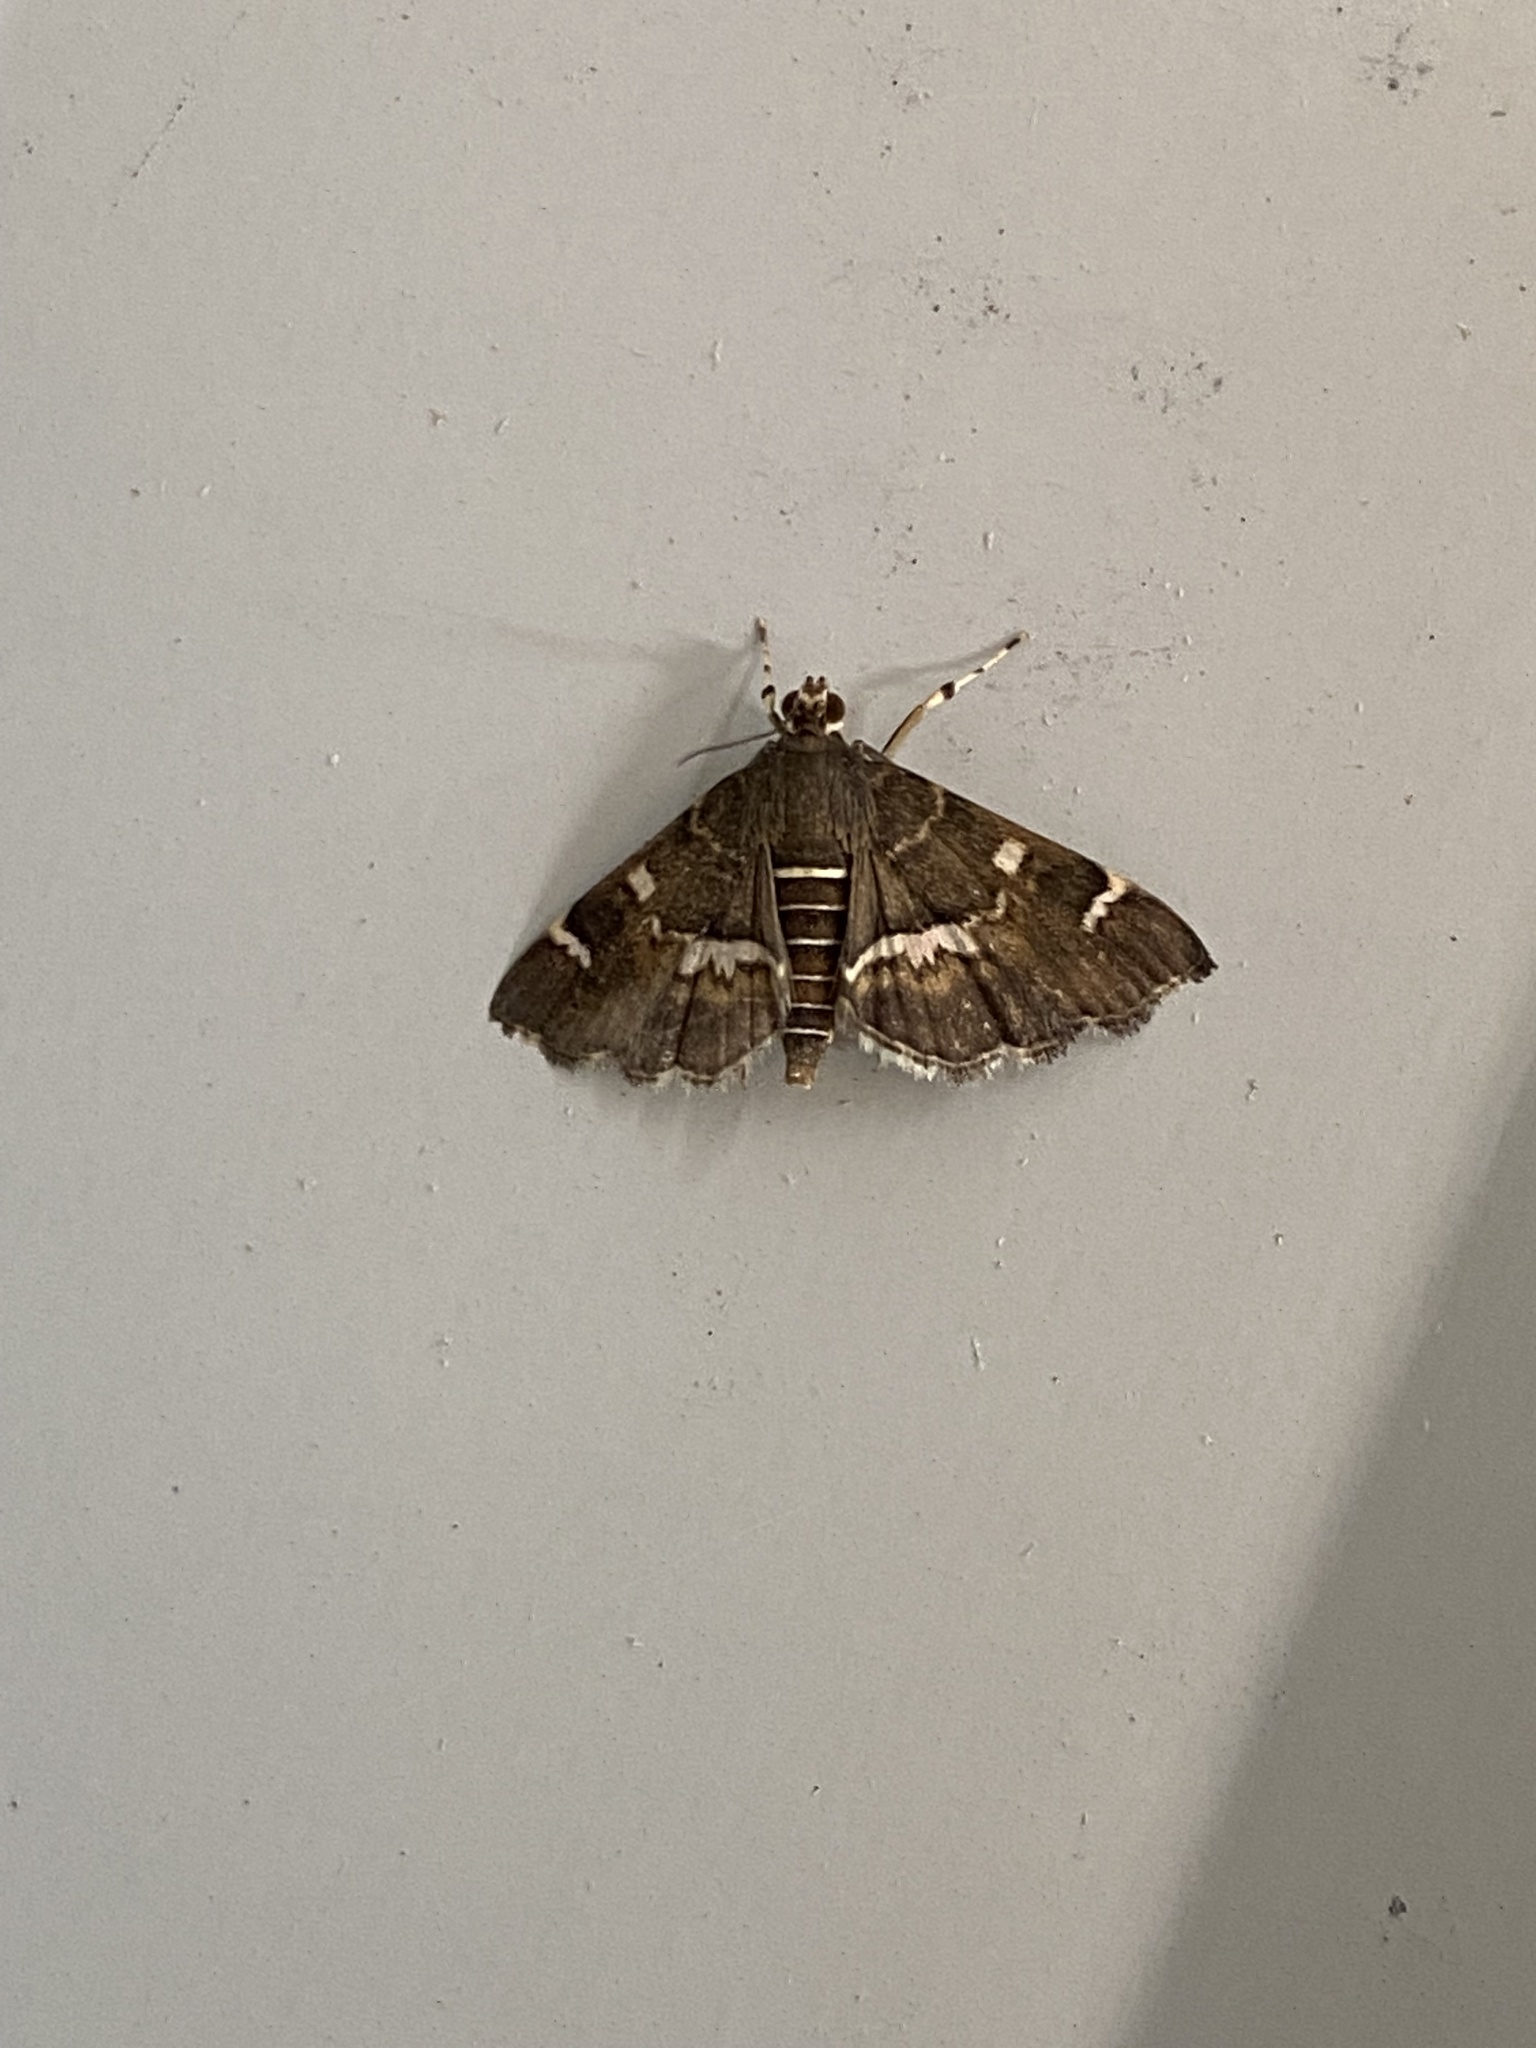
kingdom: Animalia
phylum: Arthropoda
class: Insecta
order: Lepidoptera
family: Crambidae
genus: Hymenia
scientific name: Hymenia perspectalis
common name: Spotted beet webworm
